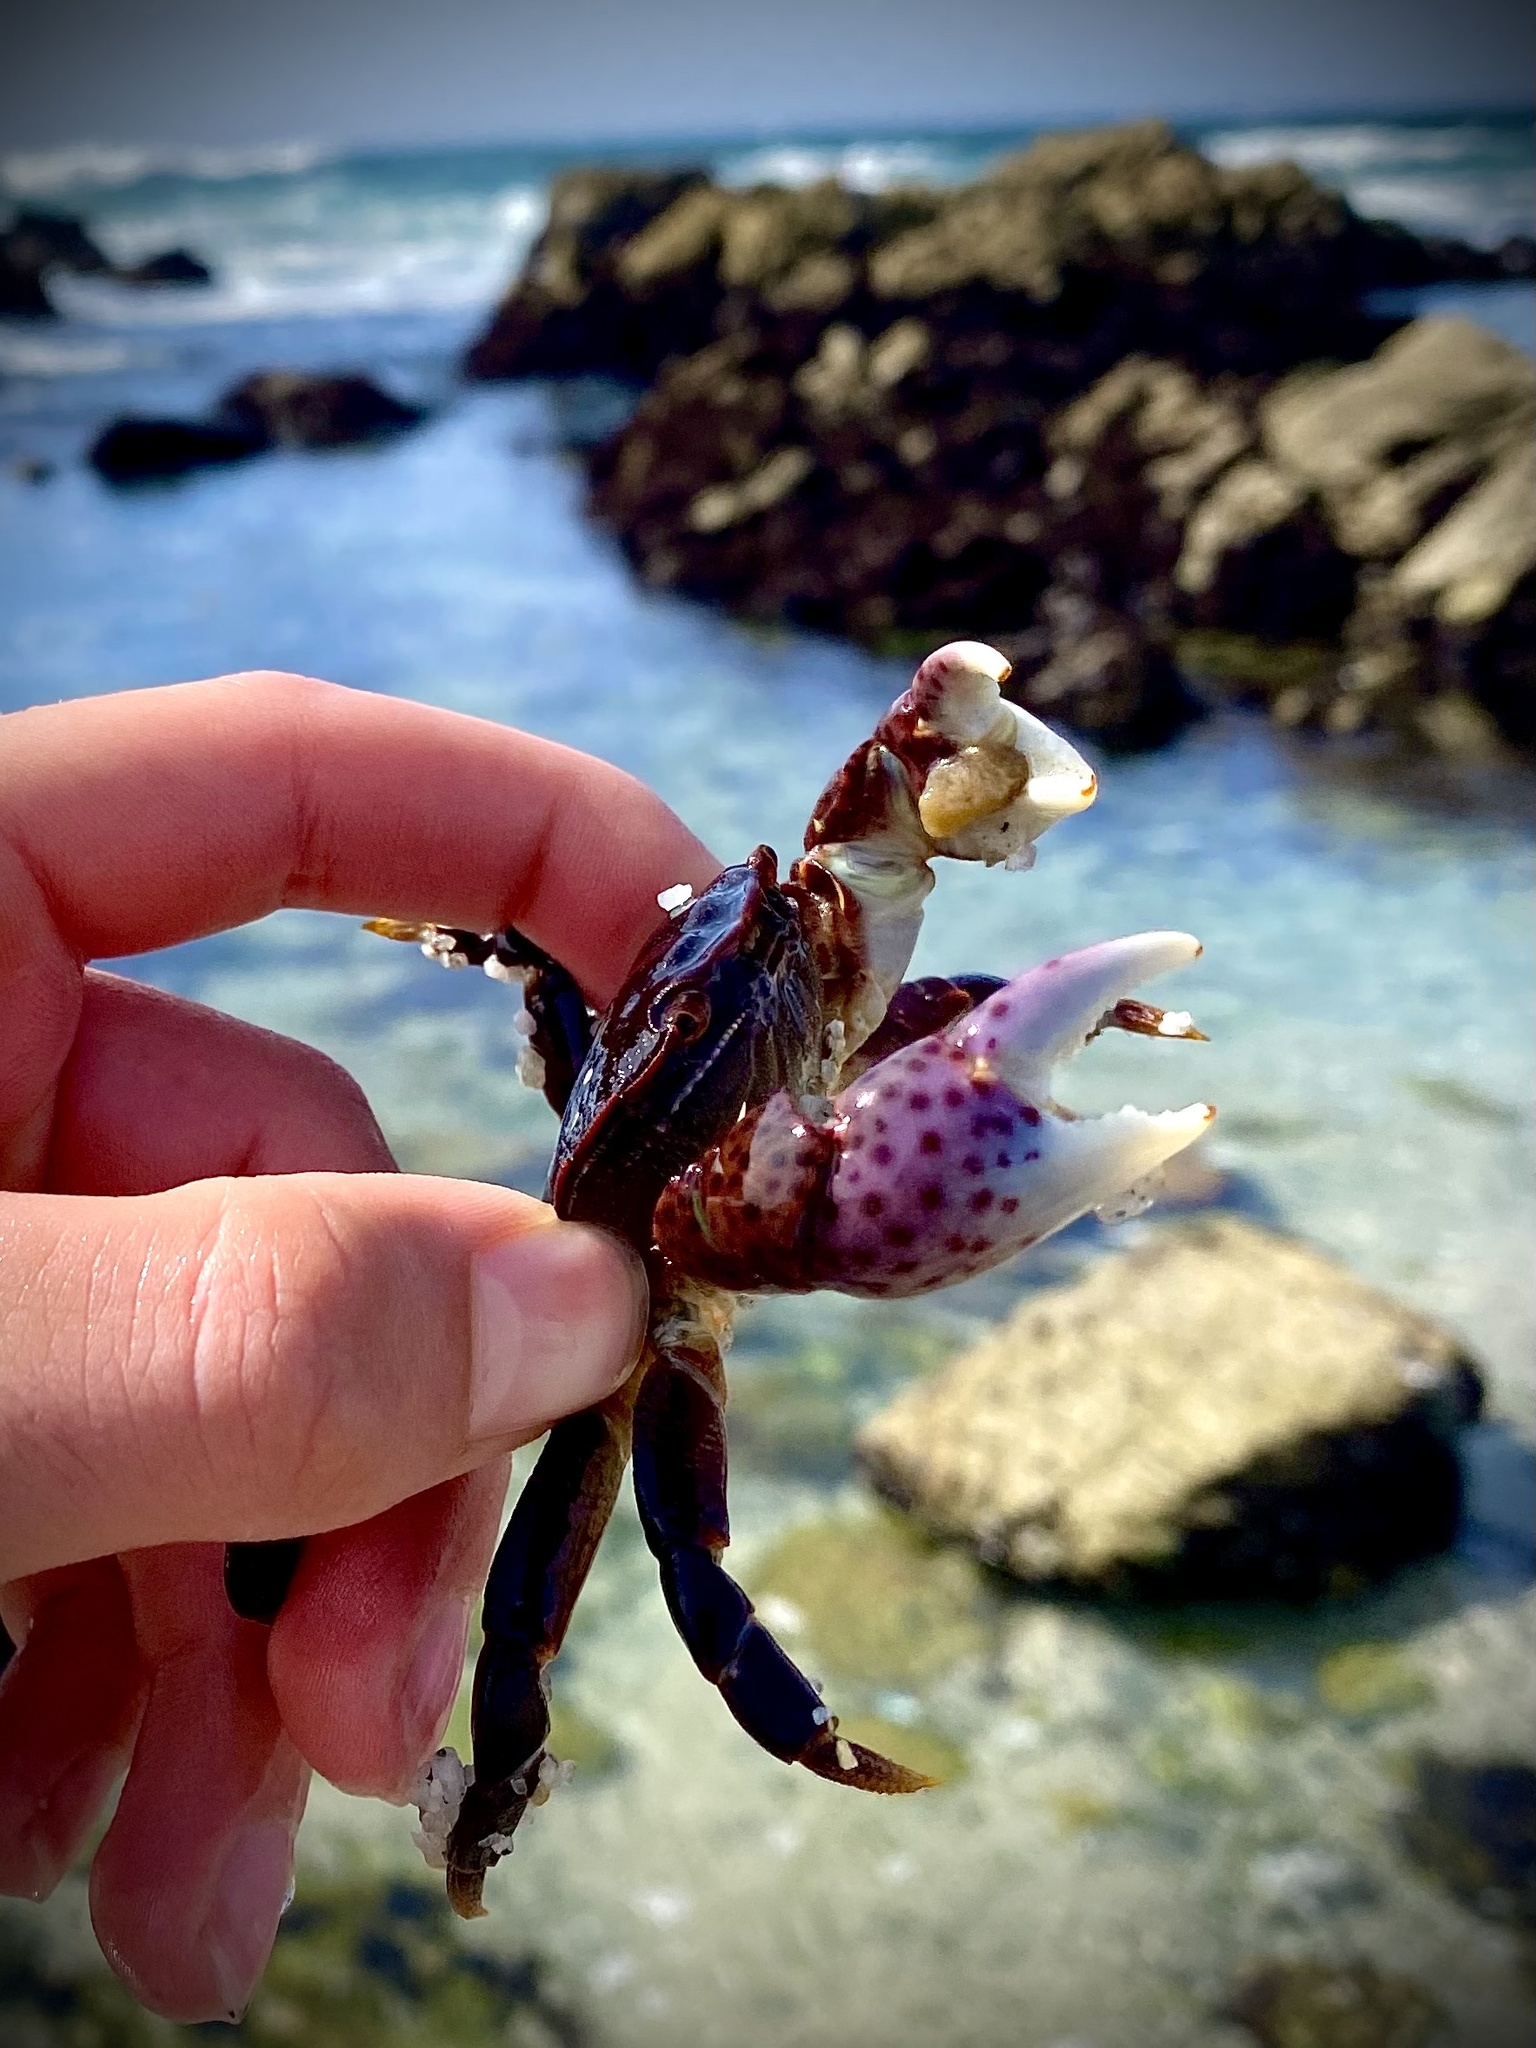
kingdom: Animalia
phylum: Arthropoda
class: Malacostraca
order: Decapoda
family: Varunidae
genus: Hemigrapsus
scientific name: Hemigrapsus nudus
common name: Purple shore crab
